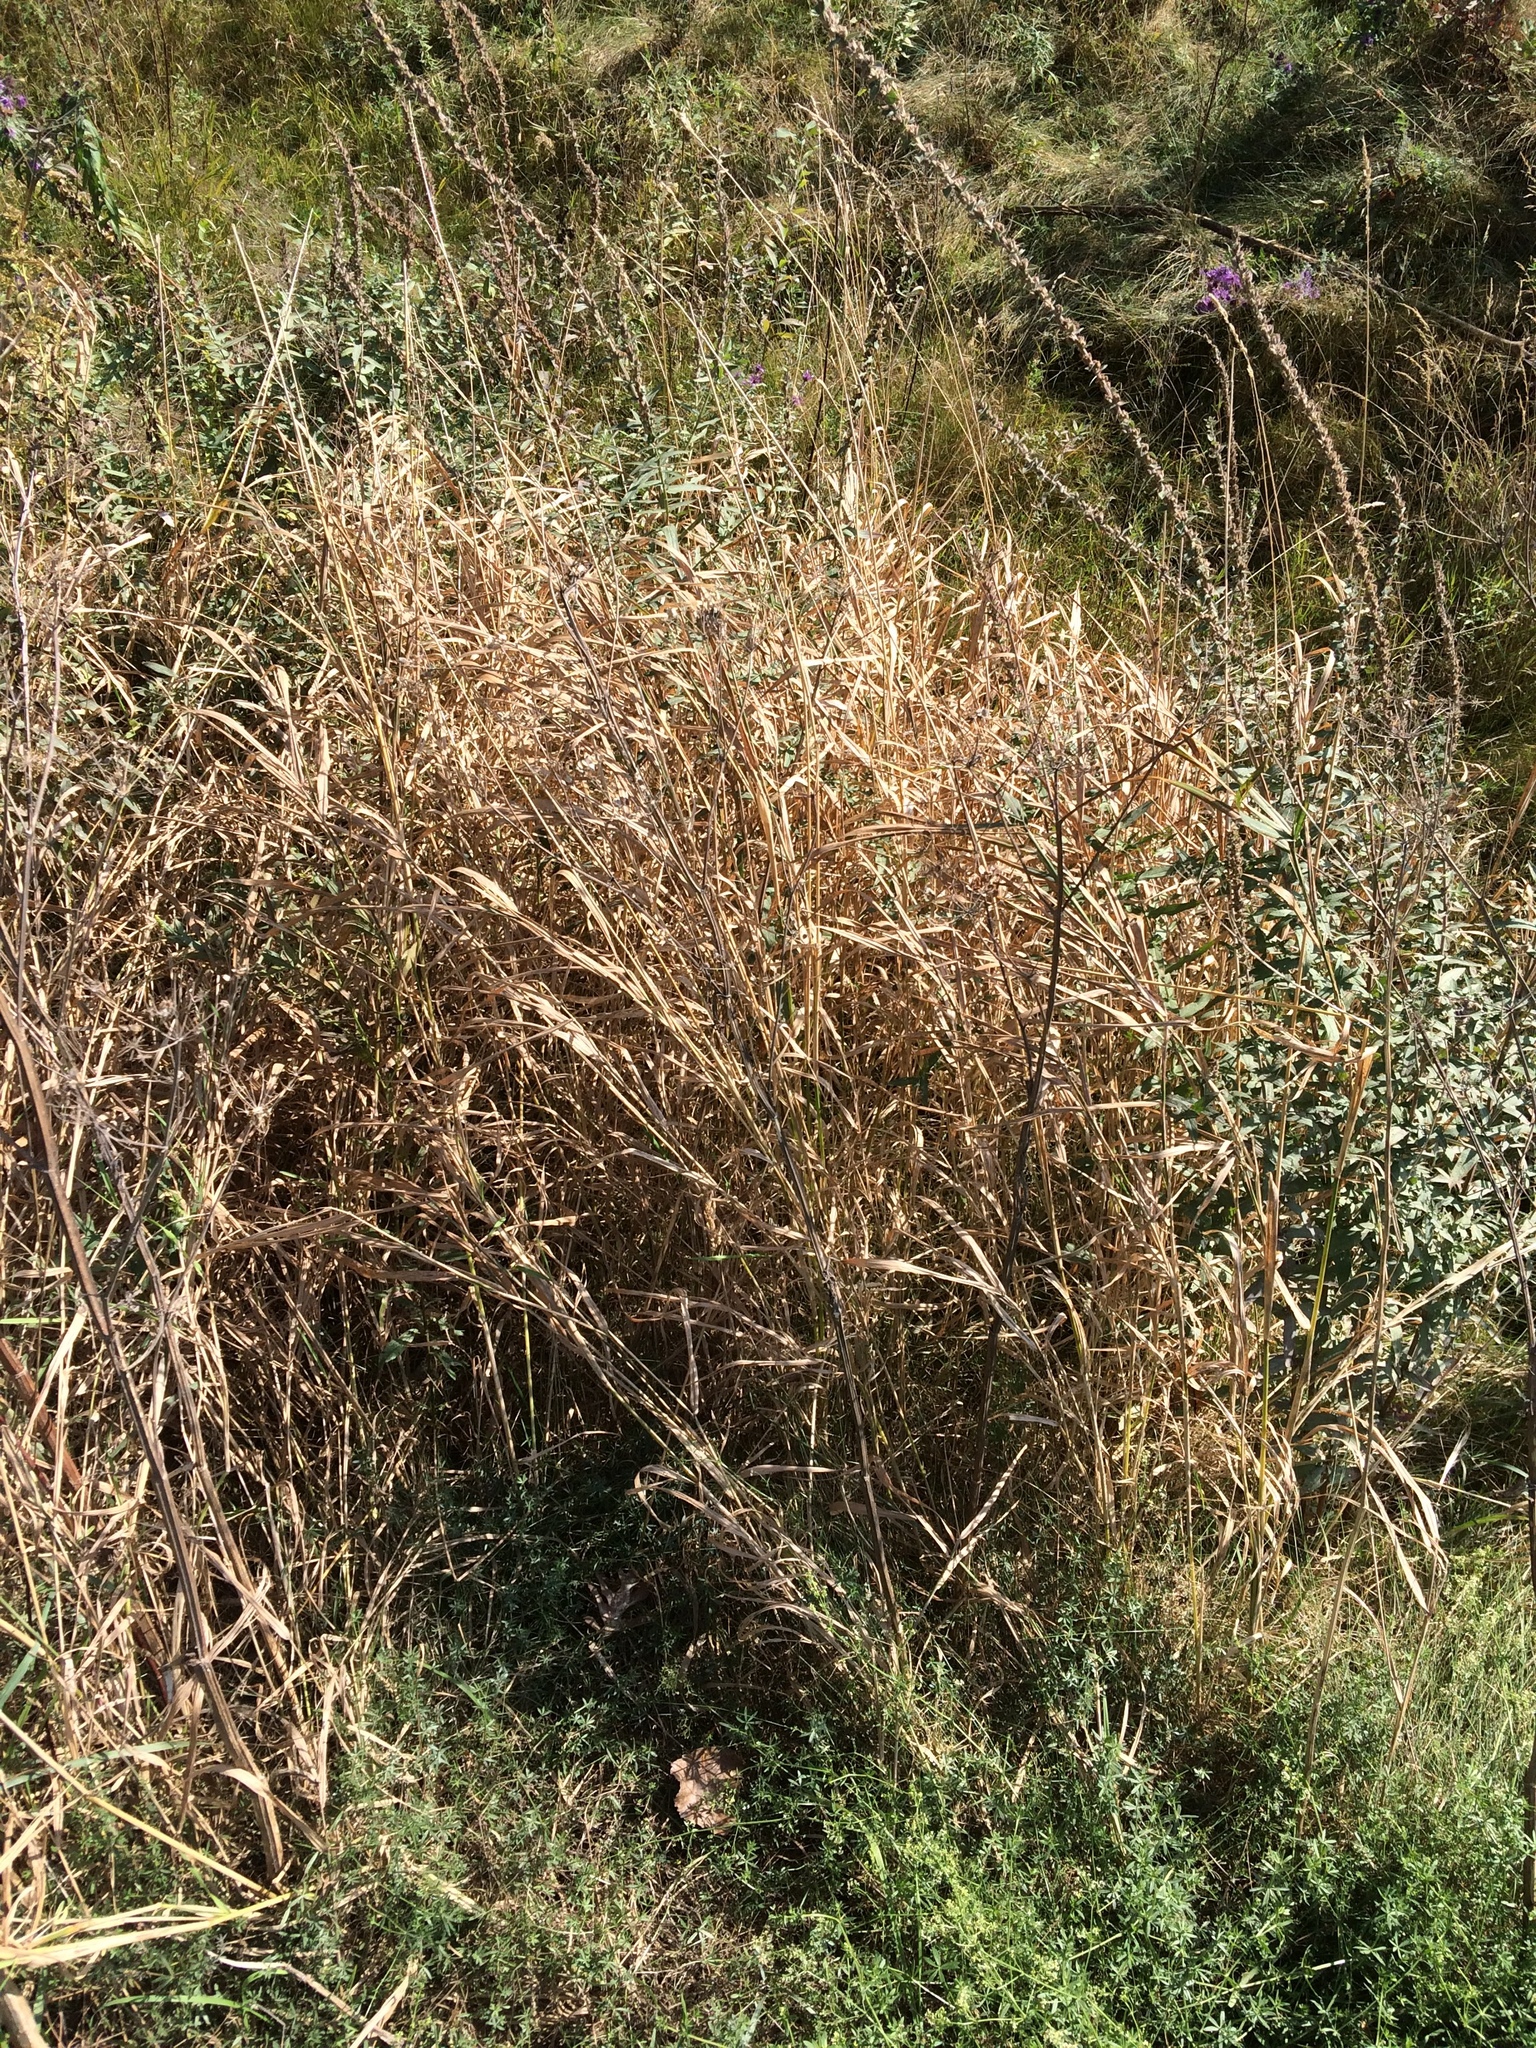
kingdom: Plantae
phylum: Tracheophyta
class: Liliopsida
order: Poales
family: Poaceae
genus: Phalaris
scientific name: Phalaris arundinacea
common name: Reed canary-grass
